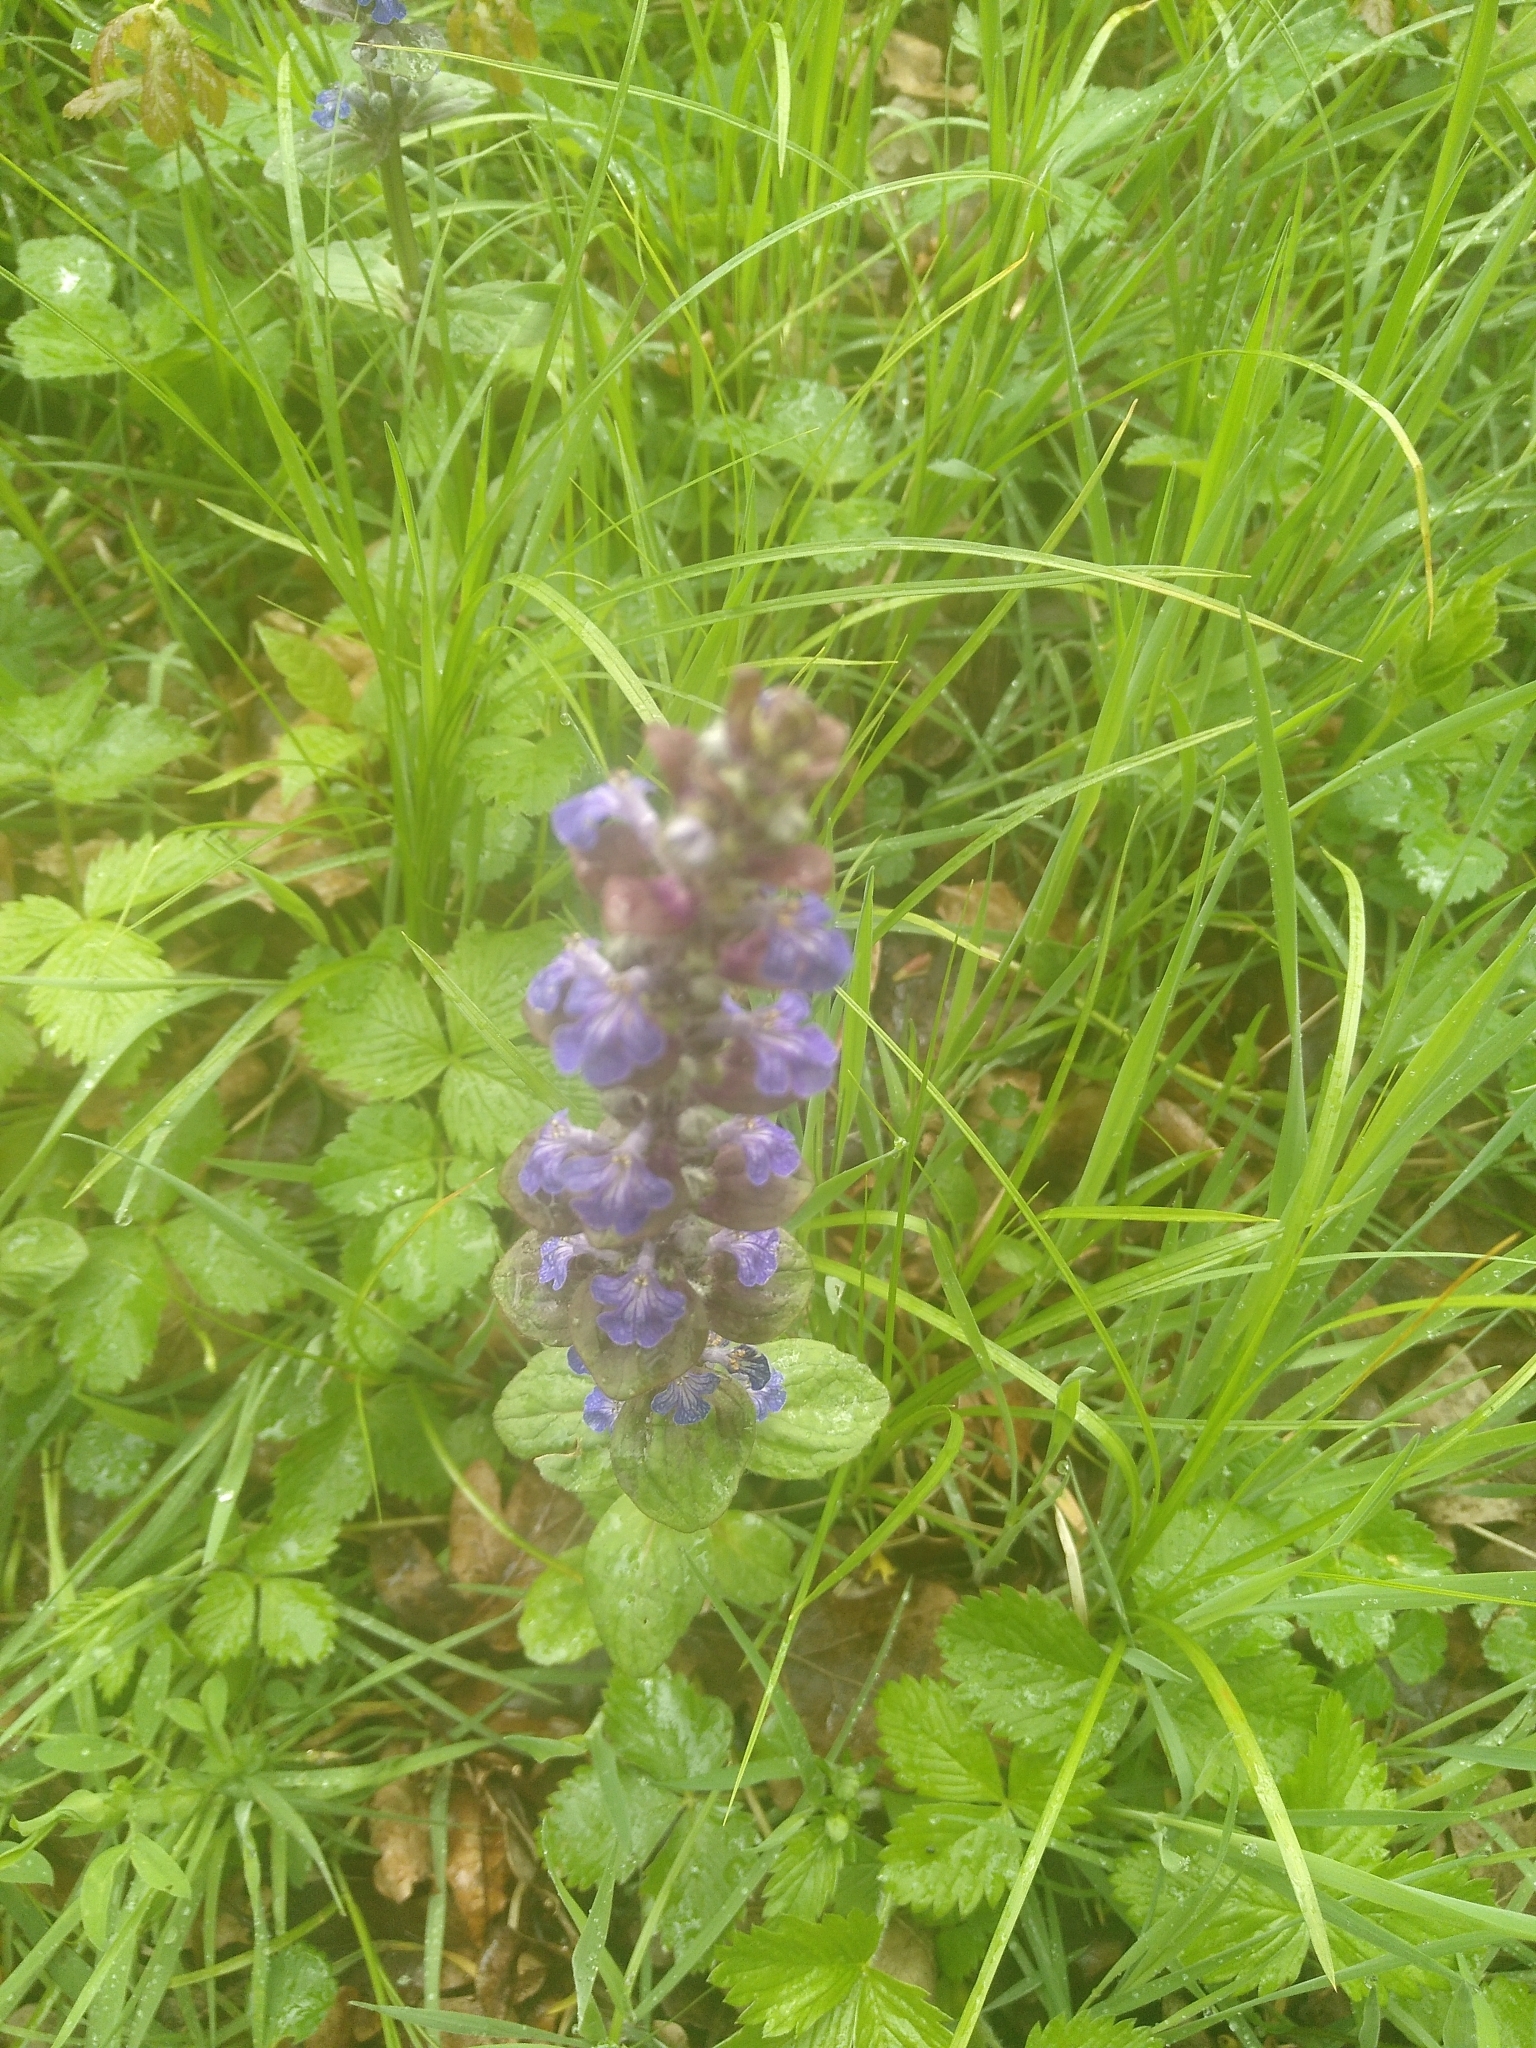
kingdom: Plantae
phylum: Tracheophyta
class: Magnoliopsida
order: Lamiales
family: Lamiaceae
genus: Ajuga
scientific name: Ajuga reptans
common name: Bugle
